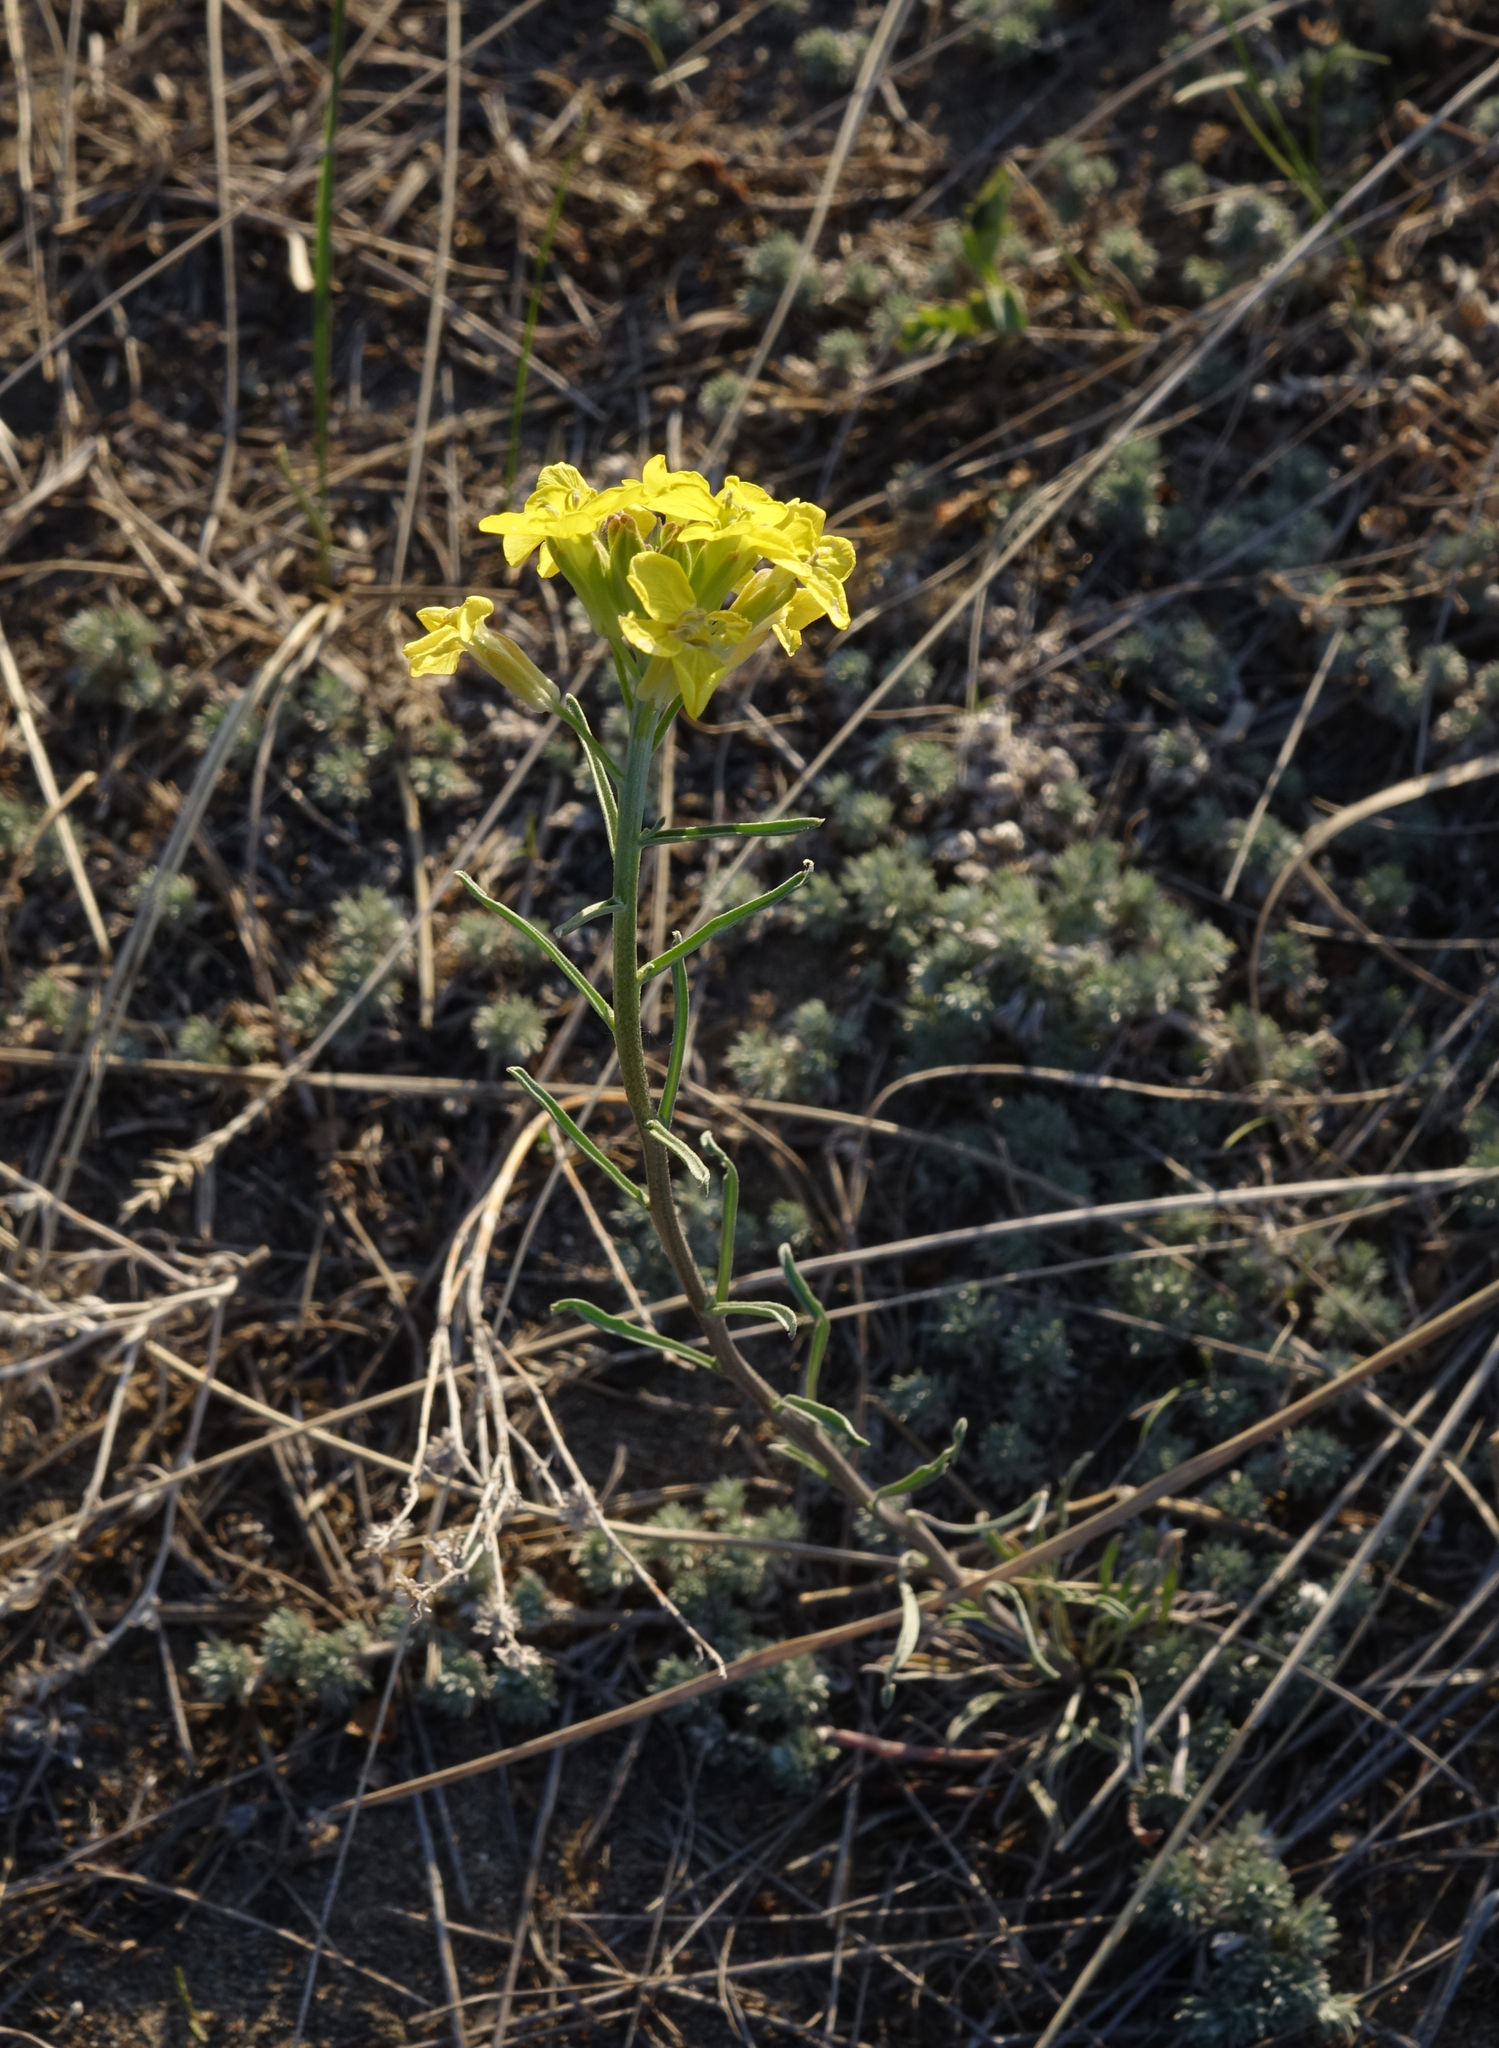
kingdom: Plantae
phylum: Tracheophyta
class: Magnoliopsida
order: Brassicales
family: Brassicaceae
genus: Erysimum
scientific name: Erysimum flavum
